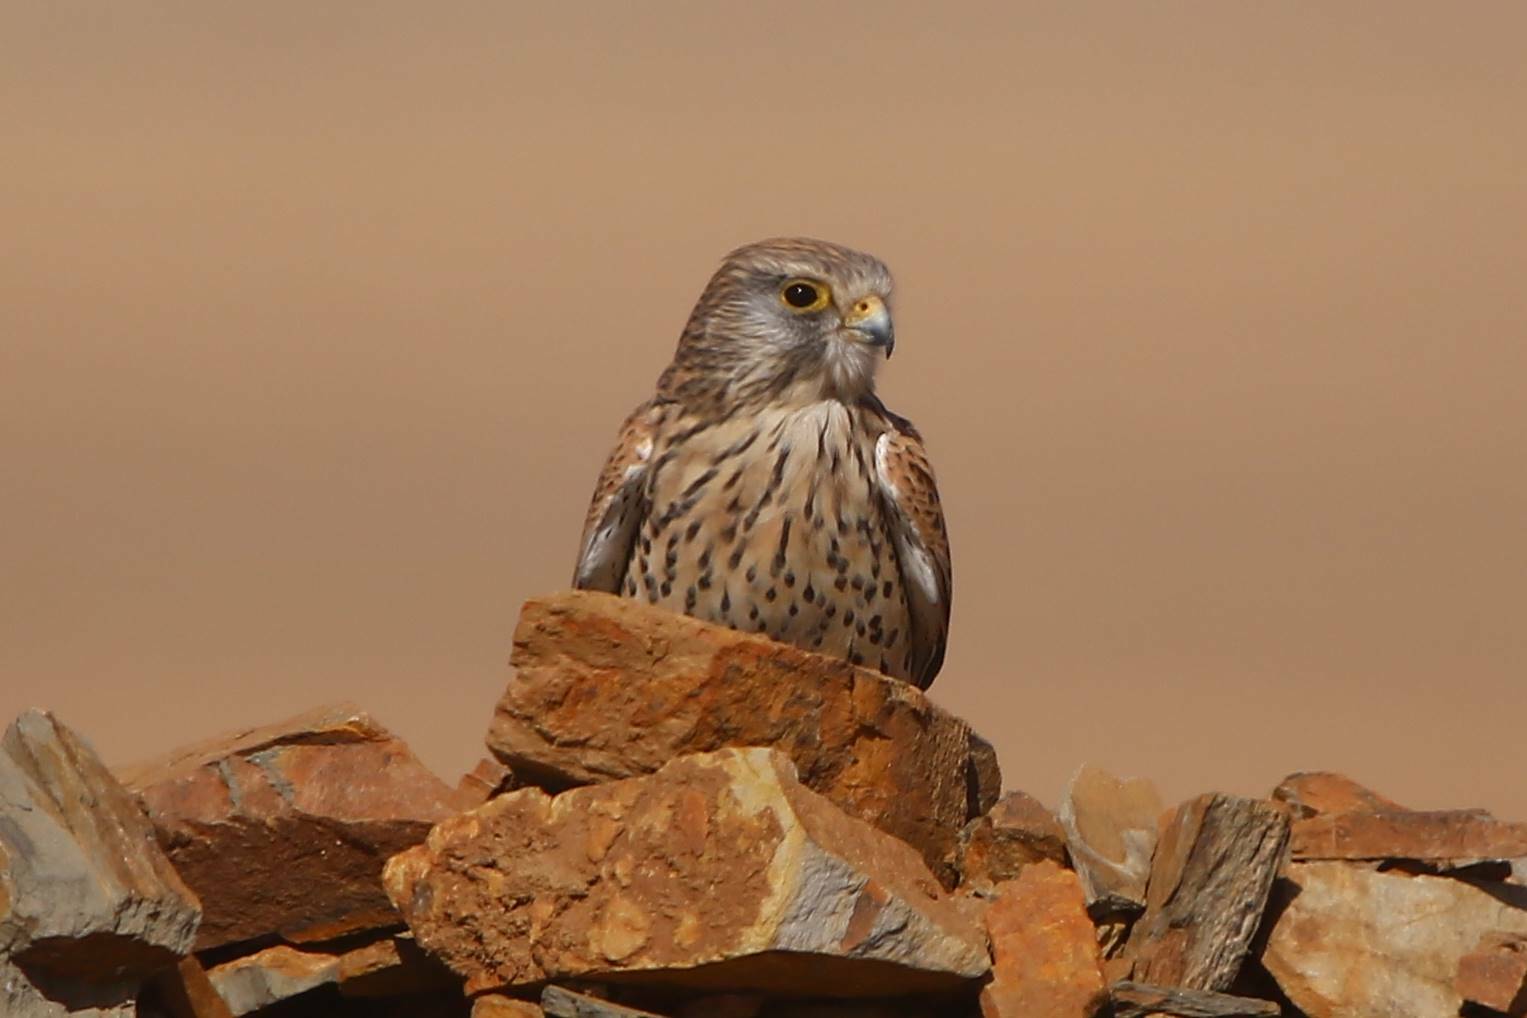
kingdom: Animalia
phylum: Chordata
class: Aves
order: Falconiformes
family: Falconidae
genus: Falco
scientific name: Falco tinnunculus
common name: Common kestrel
